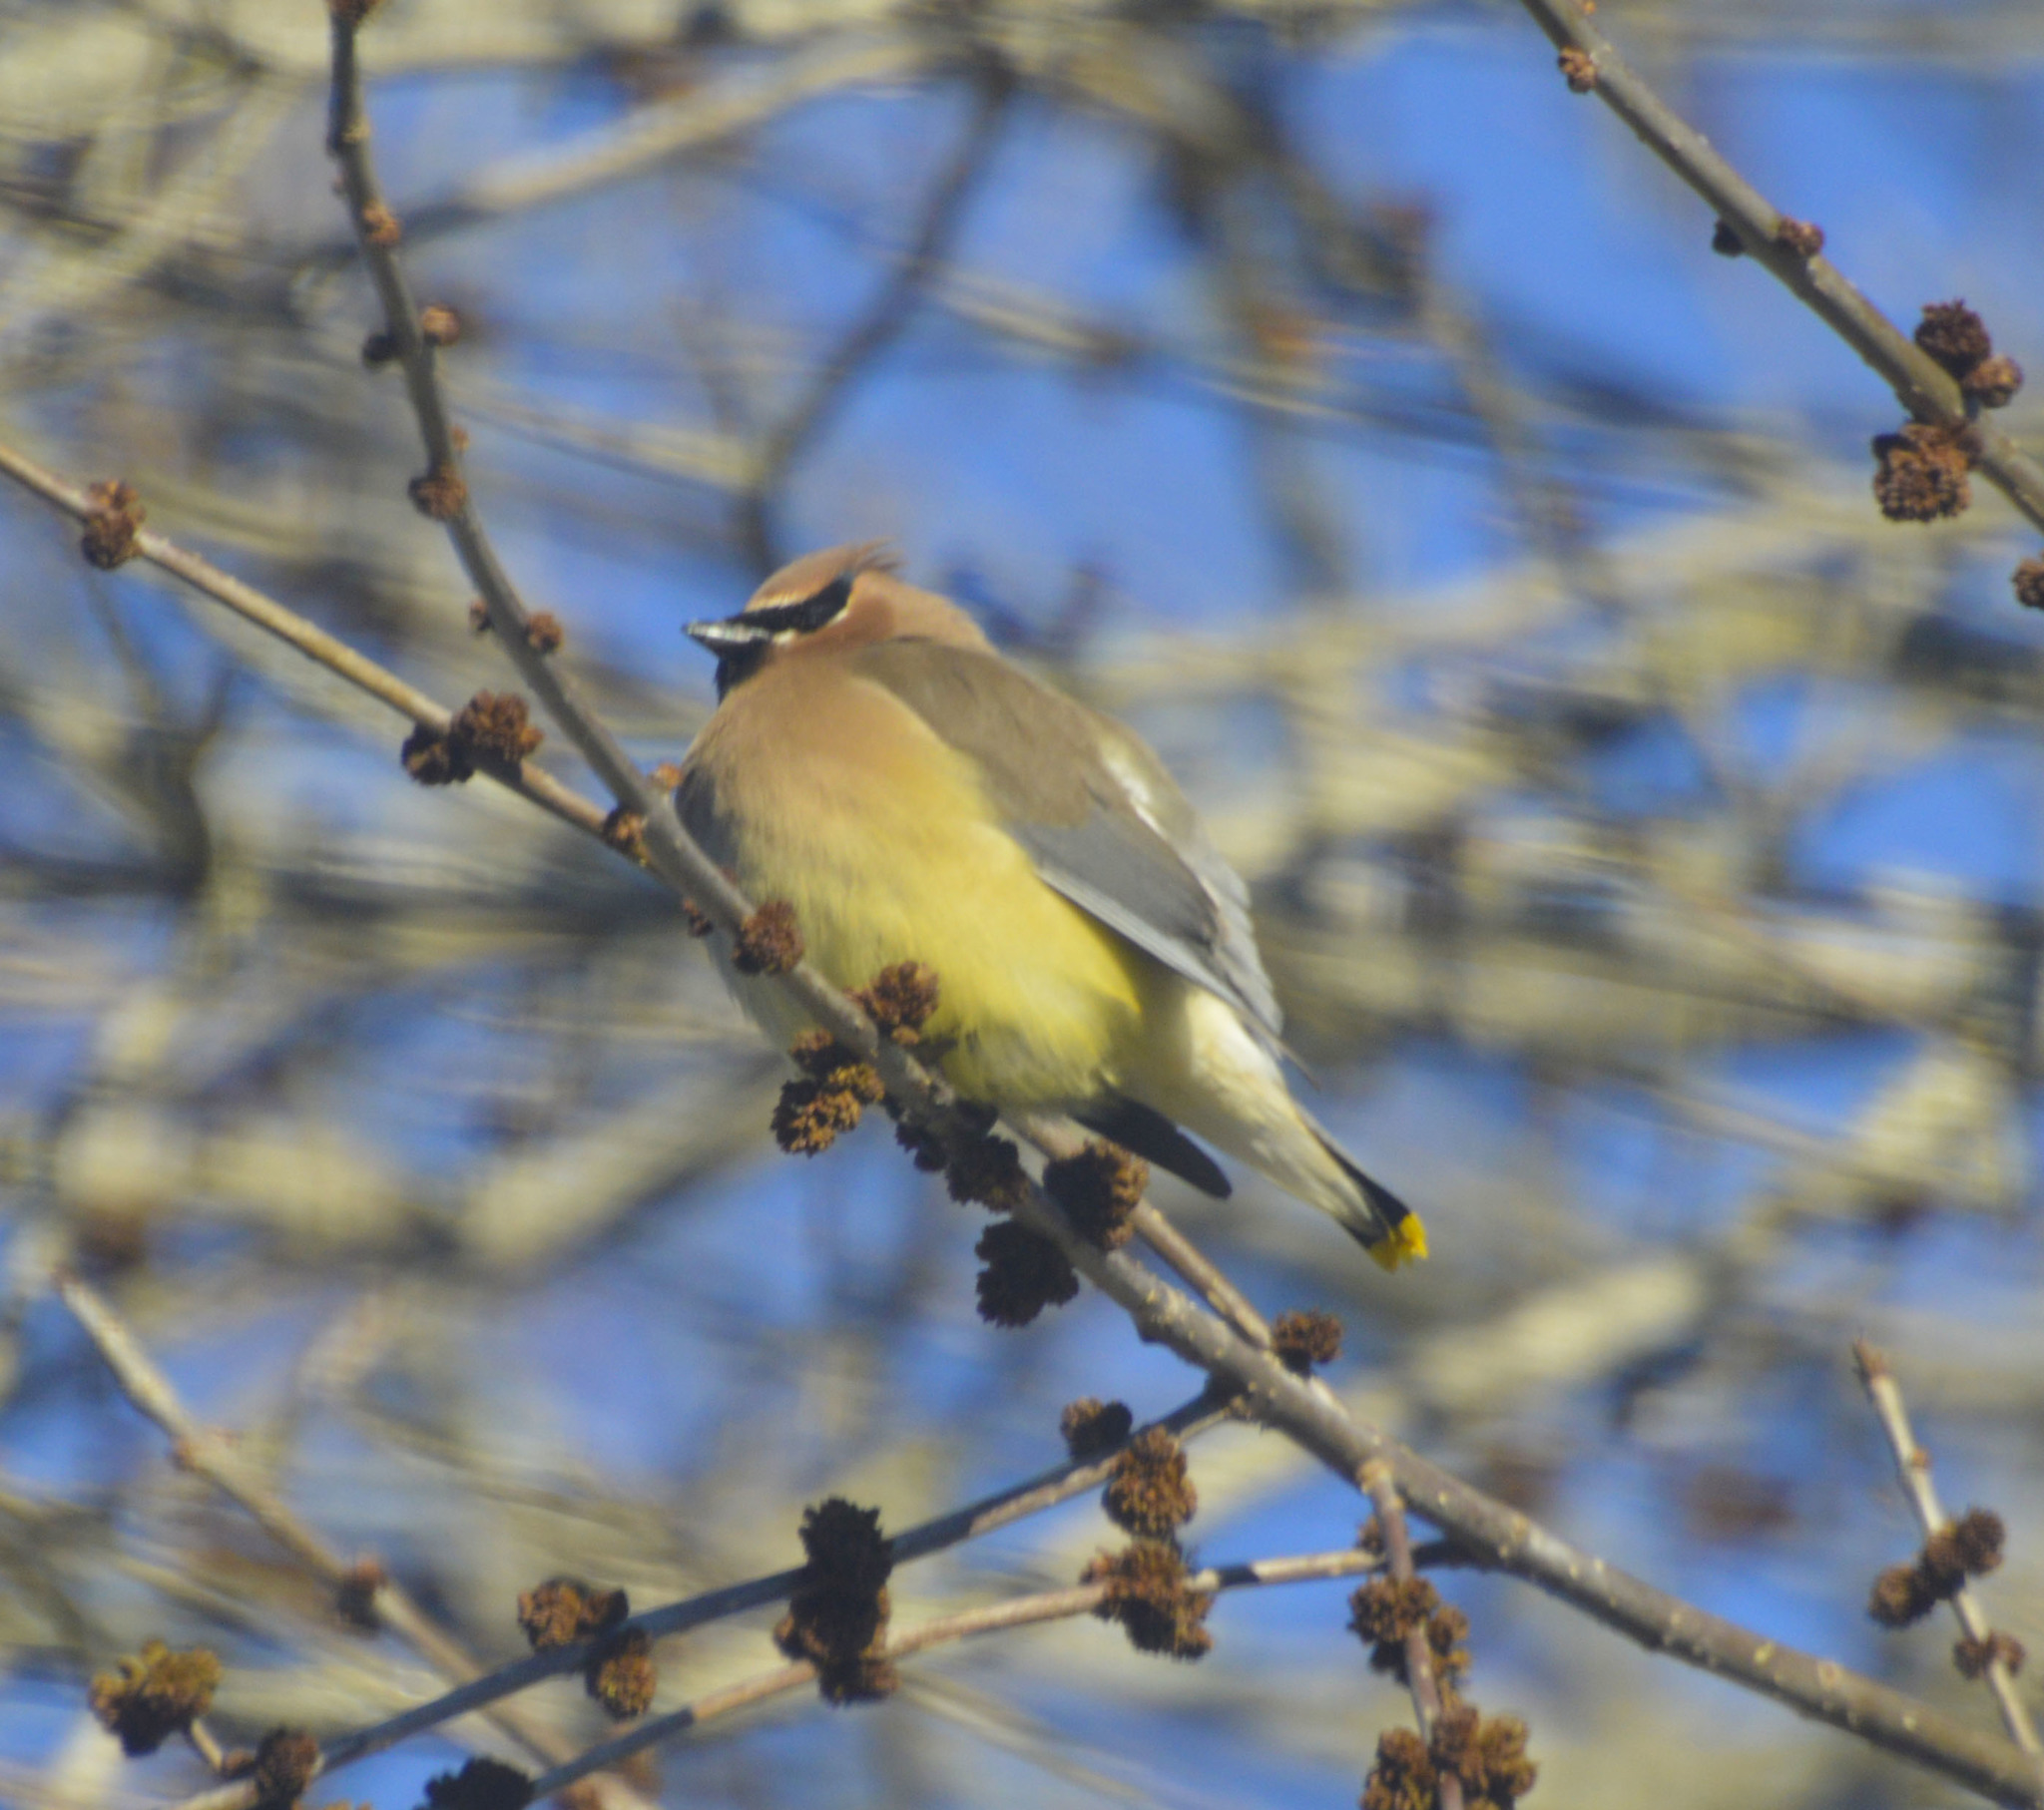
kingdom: Animalia
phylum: Chordata
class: Aves
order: Passeriformes
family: Bombycillidae
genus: Bombycilla
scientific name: Bombycilla cedrorum
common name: Cedar waxwing
